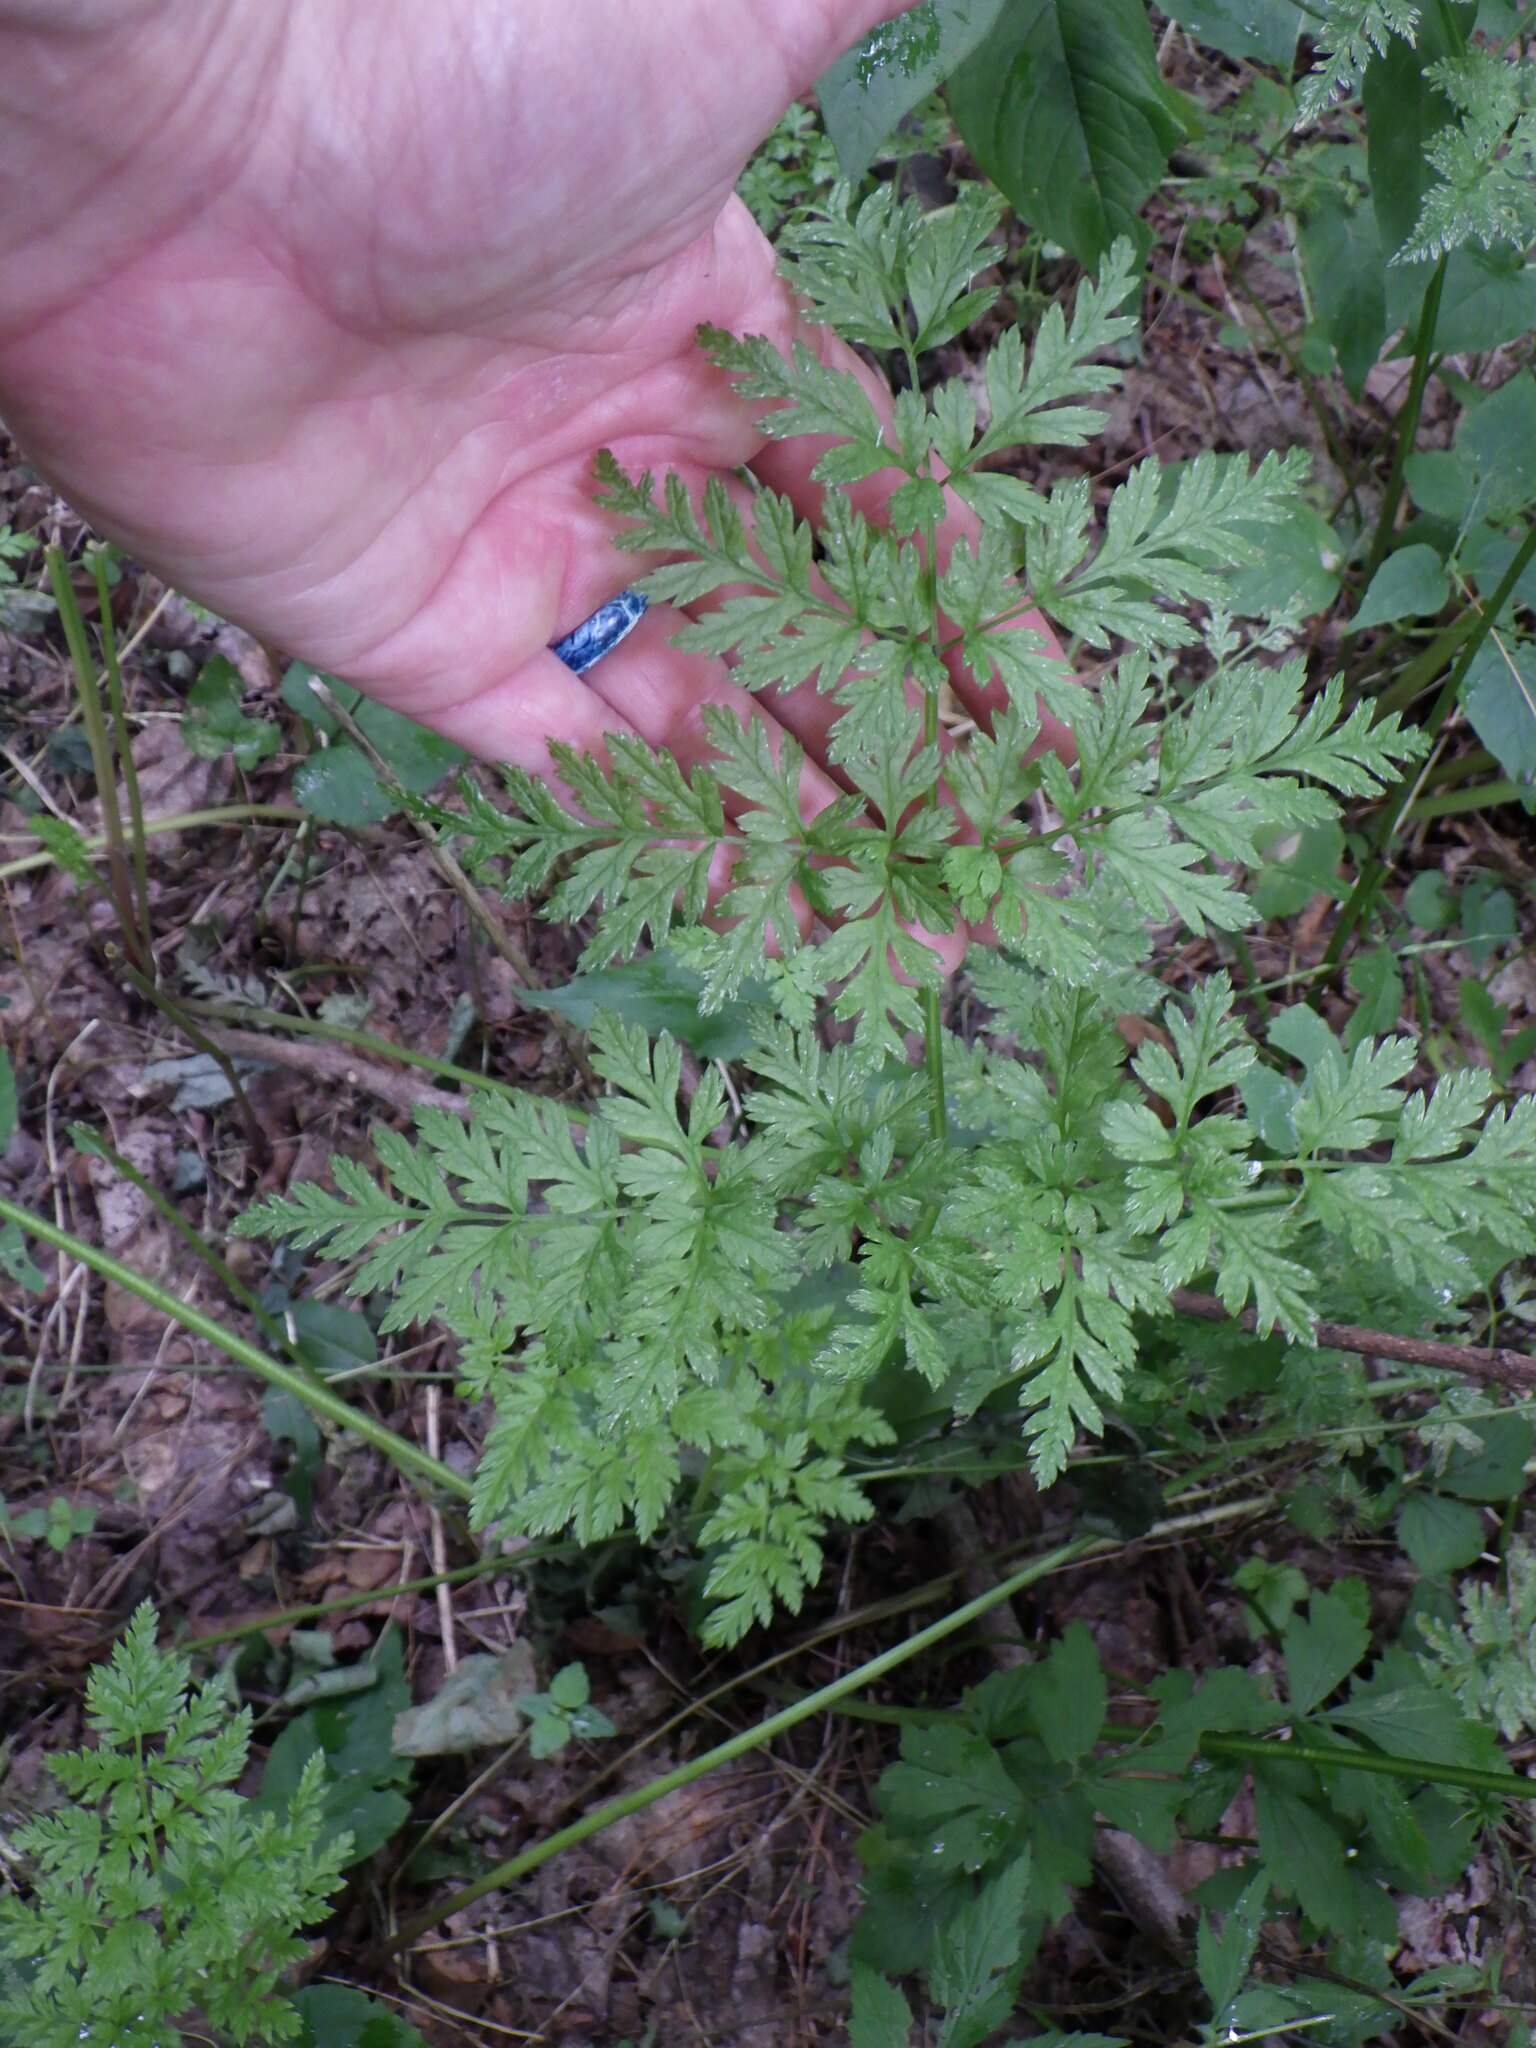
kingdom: Plantae
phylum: Tracheophyta
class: Magnoliopsida
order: Apiales
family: Apiaceae
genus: Conium
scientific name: Conium maculatum
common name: Hemlock
